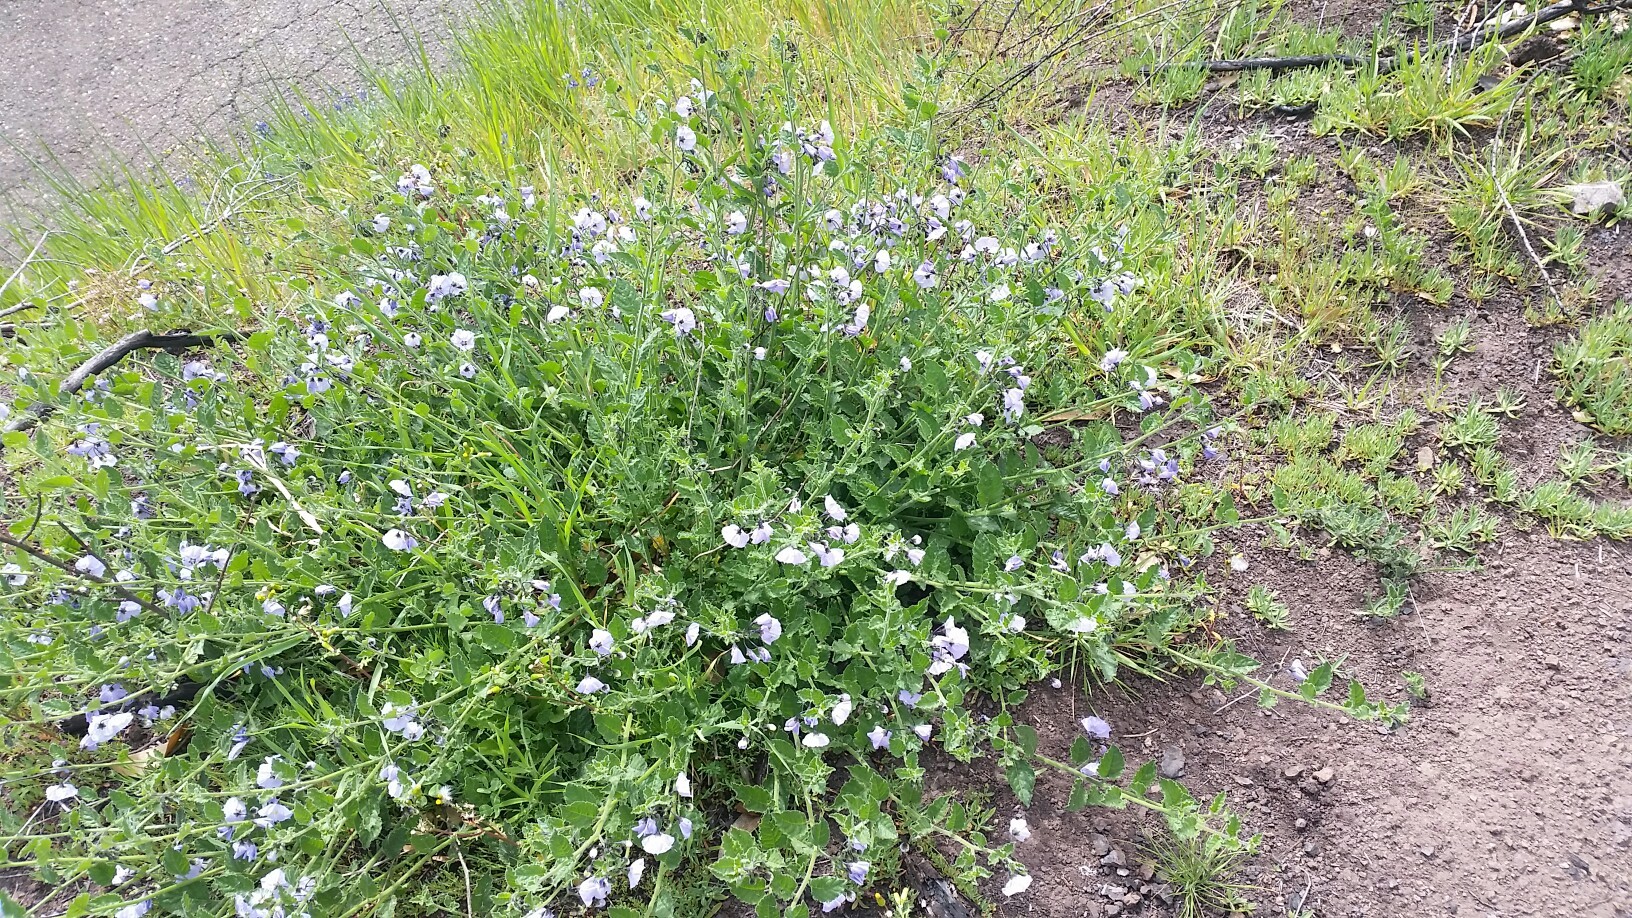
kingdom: Plantae
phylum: Tracheophyta
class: Magnoliopsida
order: Solanales
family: Solanaceae
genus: Solanum
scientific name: Solanum umbelliferum
